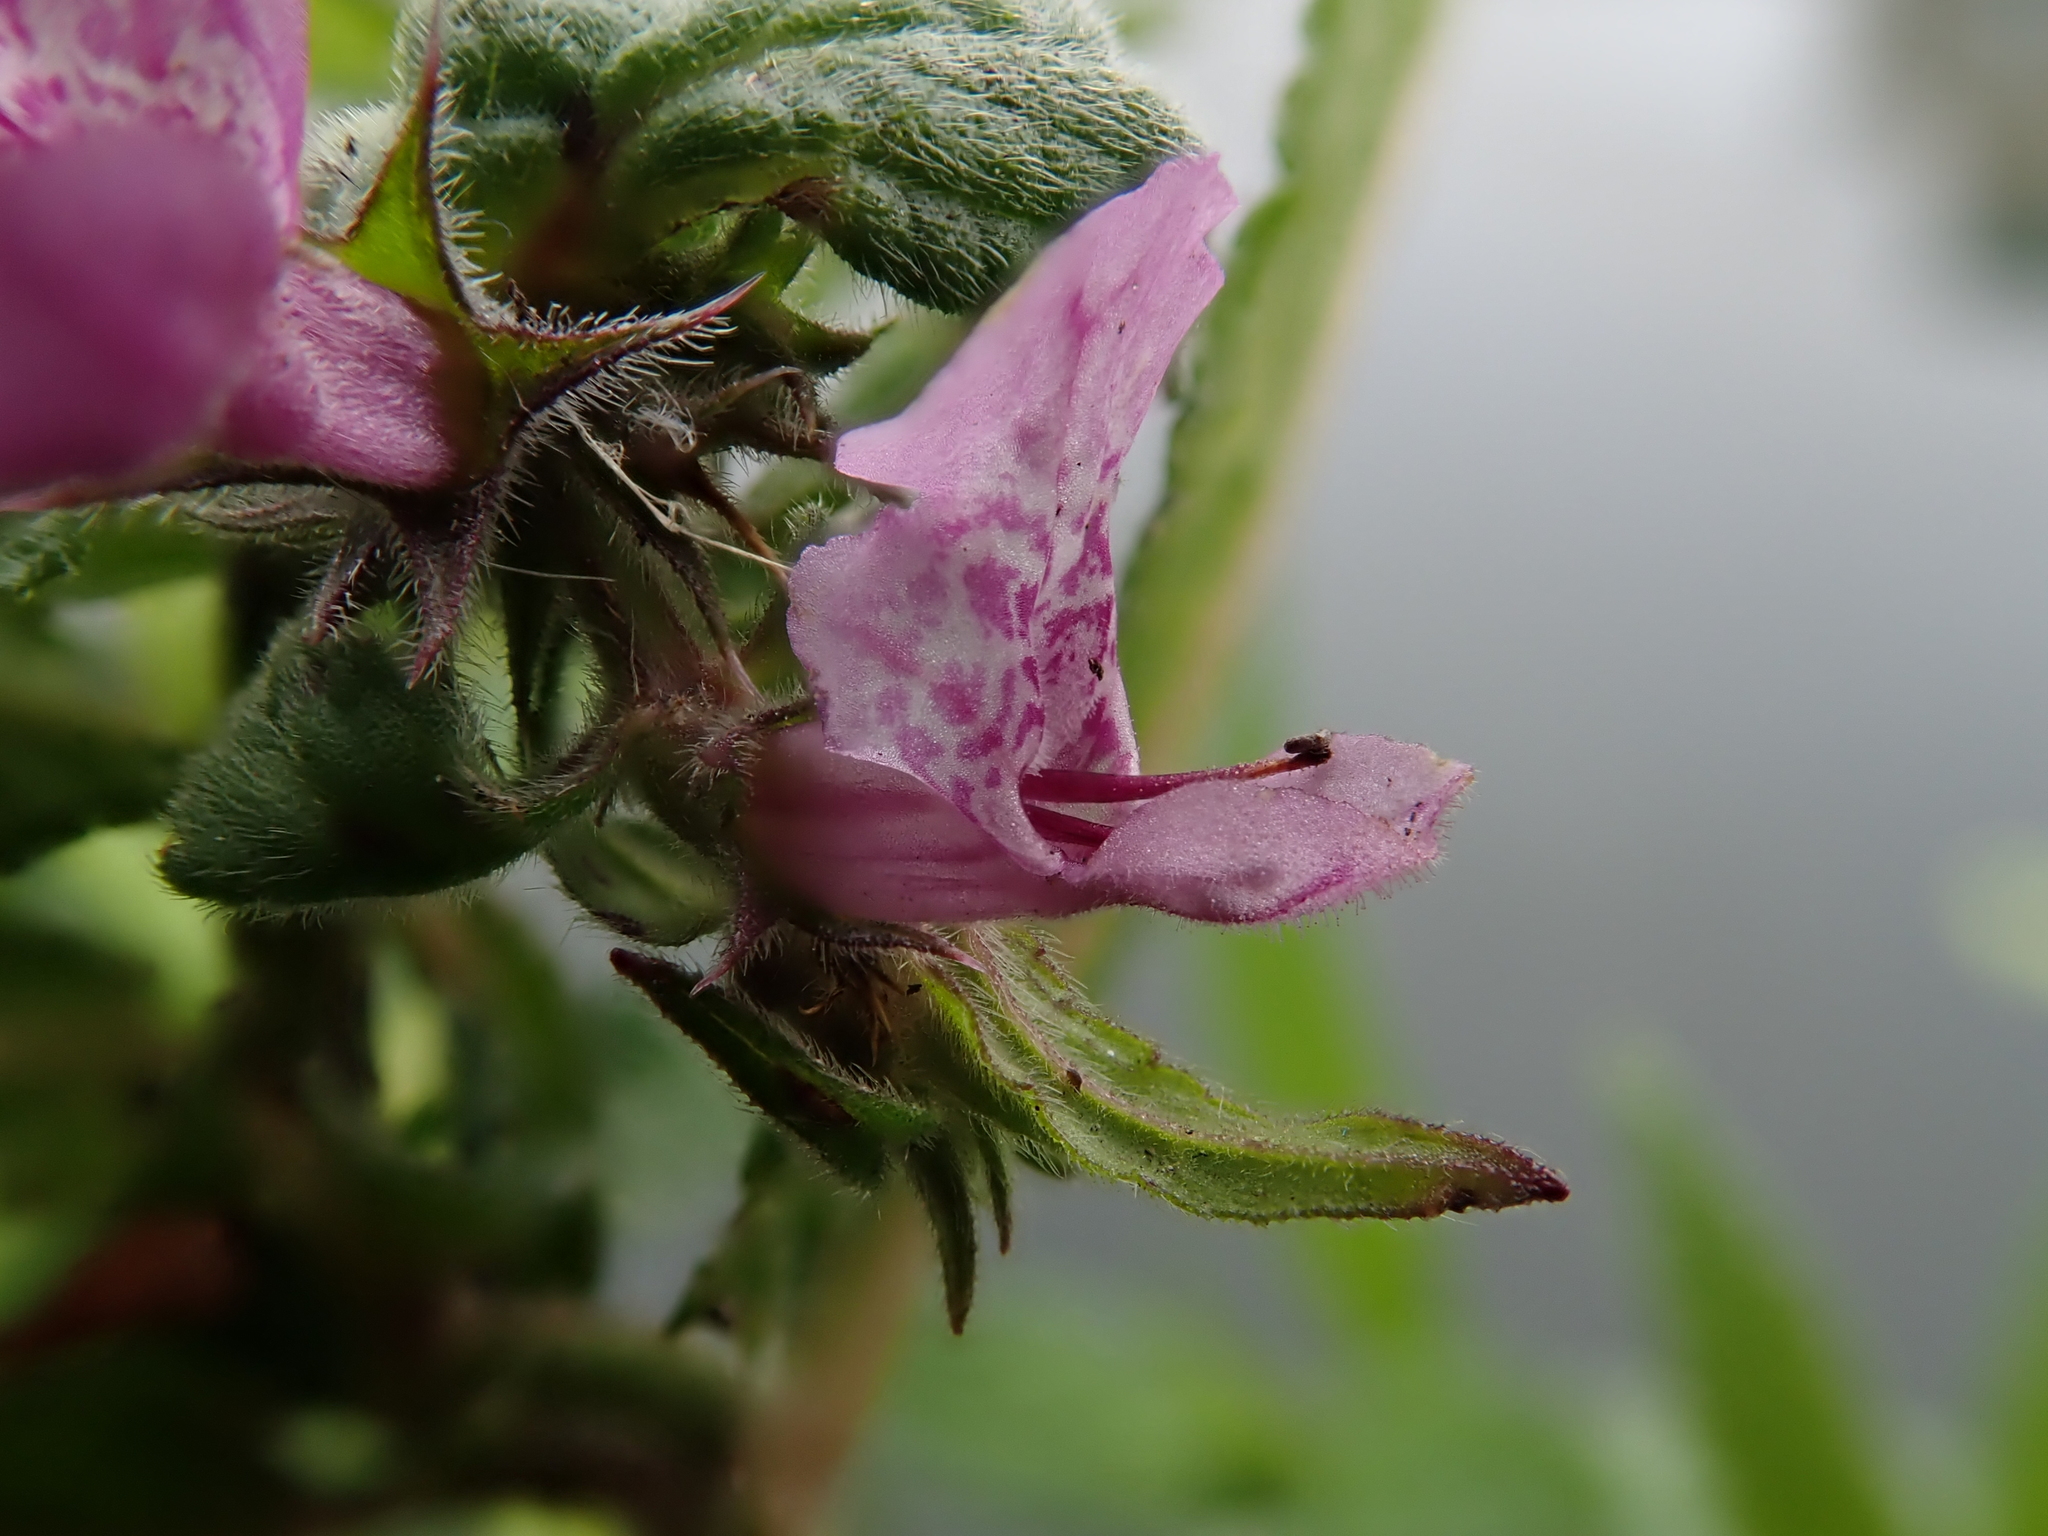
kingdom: Plantae
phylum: Tracheophyta
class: Magnoliopsida
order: Lamiales
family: Lamiaceae
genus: Stachys
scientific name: Stachys palustris
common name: Marsh woundwort
